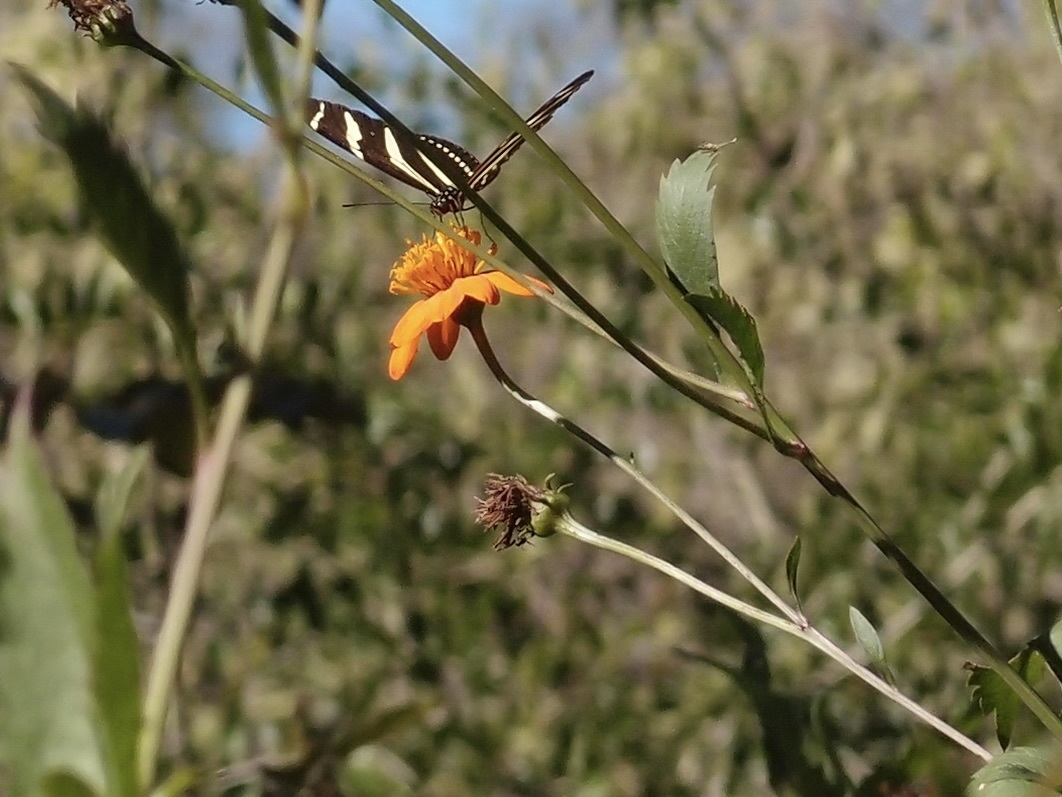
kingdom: Plantae
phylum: Tracheophyta
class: Magnoliopsida
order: Asterales
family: Asteraceae
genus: Bidens
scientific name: Bidens sambucifolia
